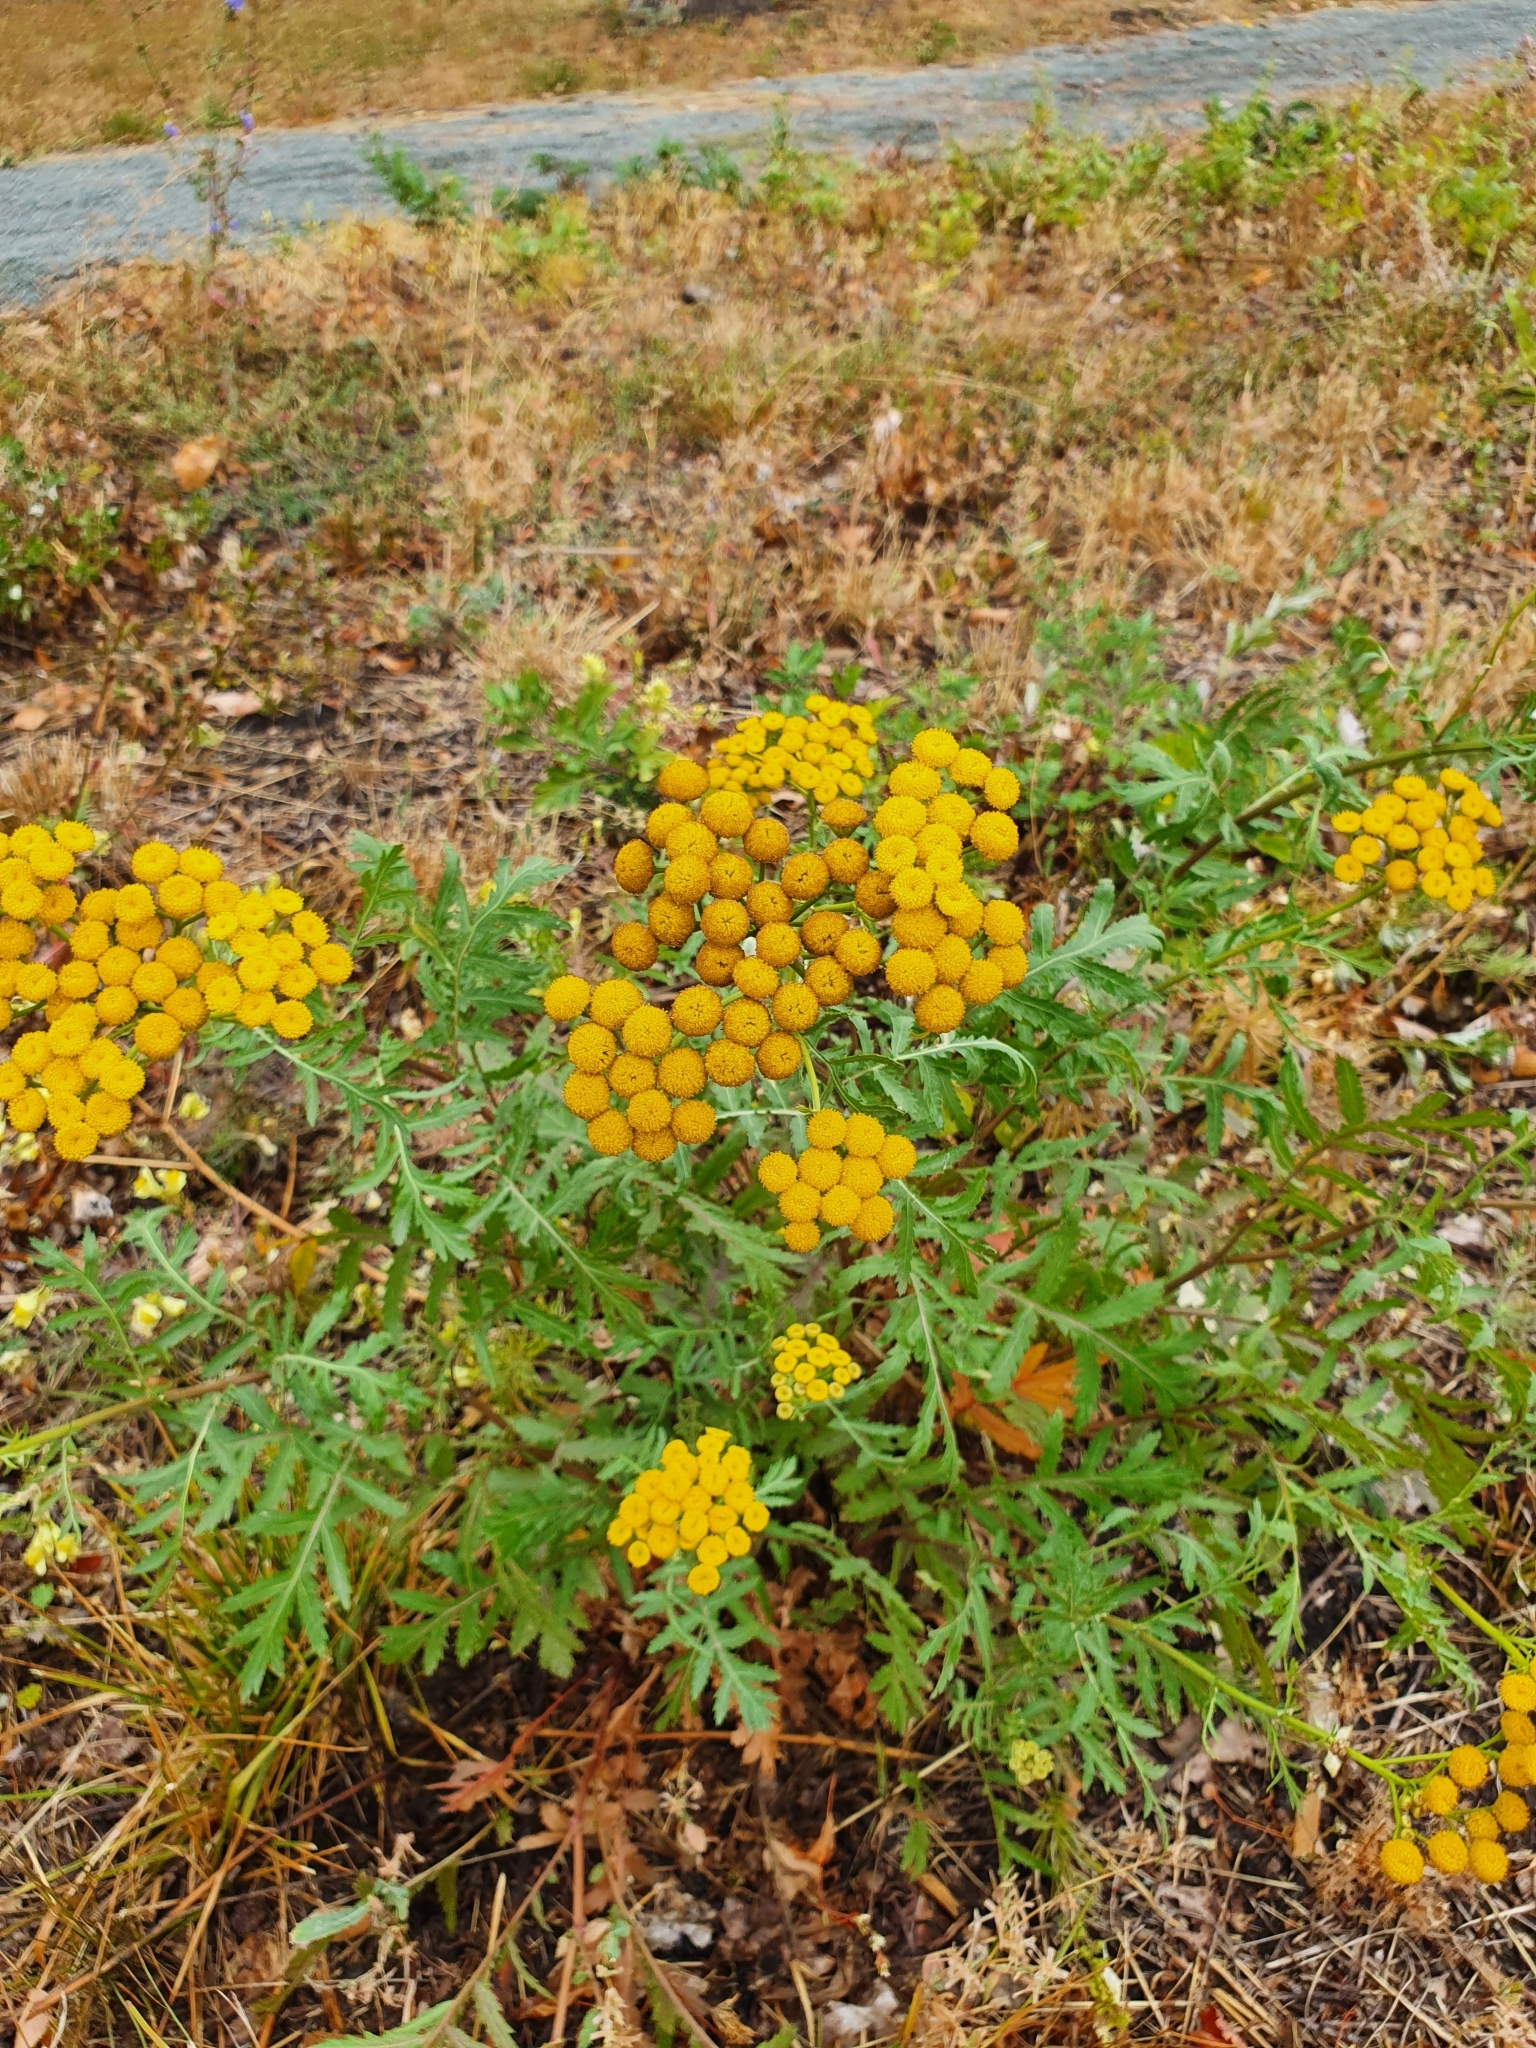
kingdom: Plantae
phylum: Tracheophyta
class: Magnoliopsida
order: Asterales
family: Asteraceae
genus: Tanacetum
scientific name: Tanacetum vulgare
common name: Common tansy
